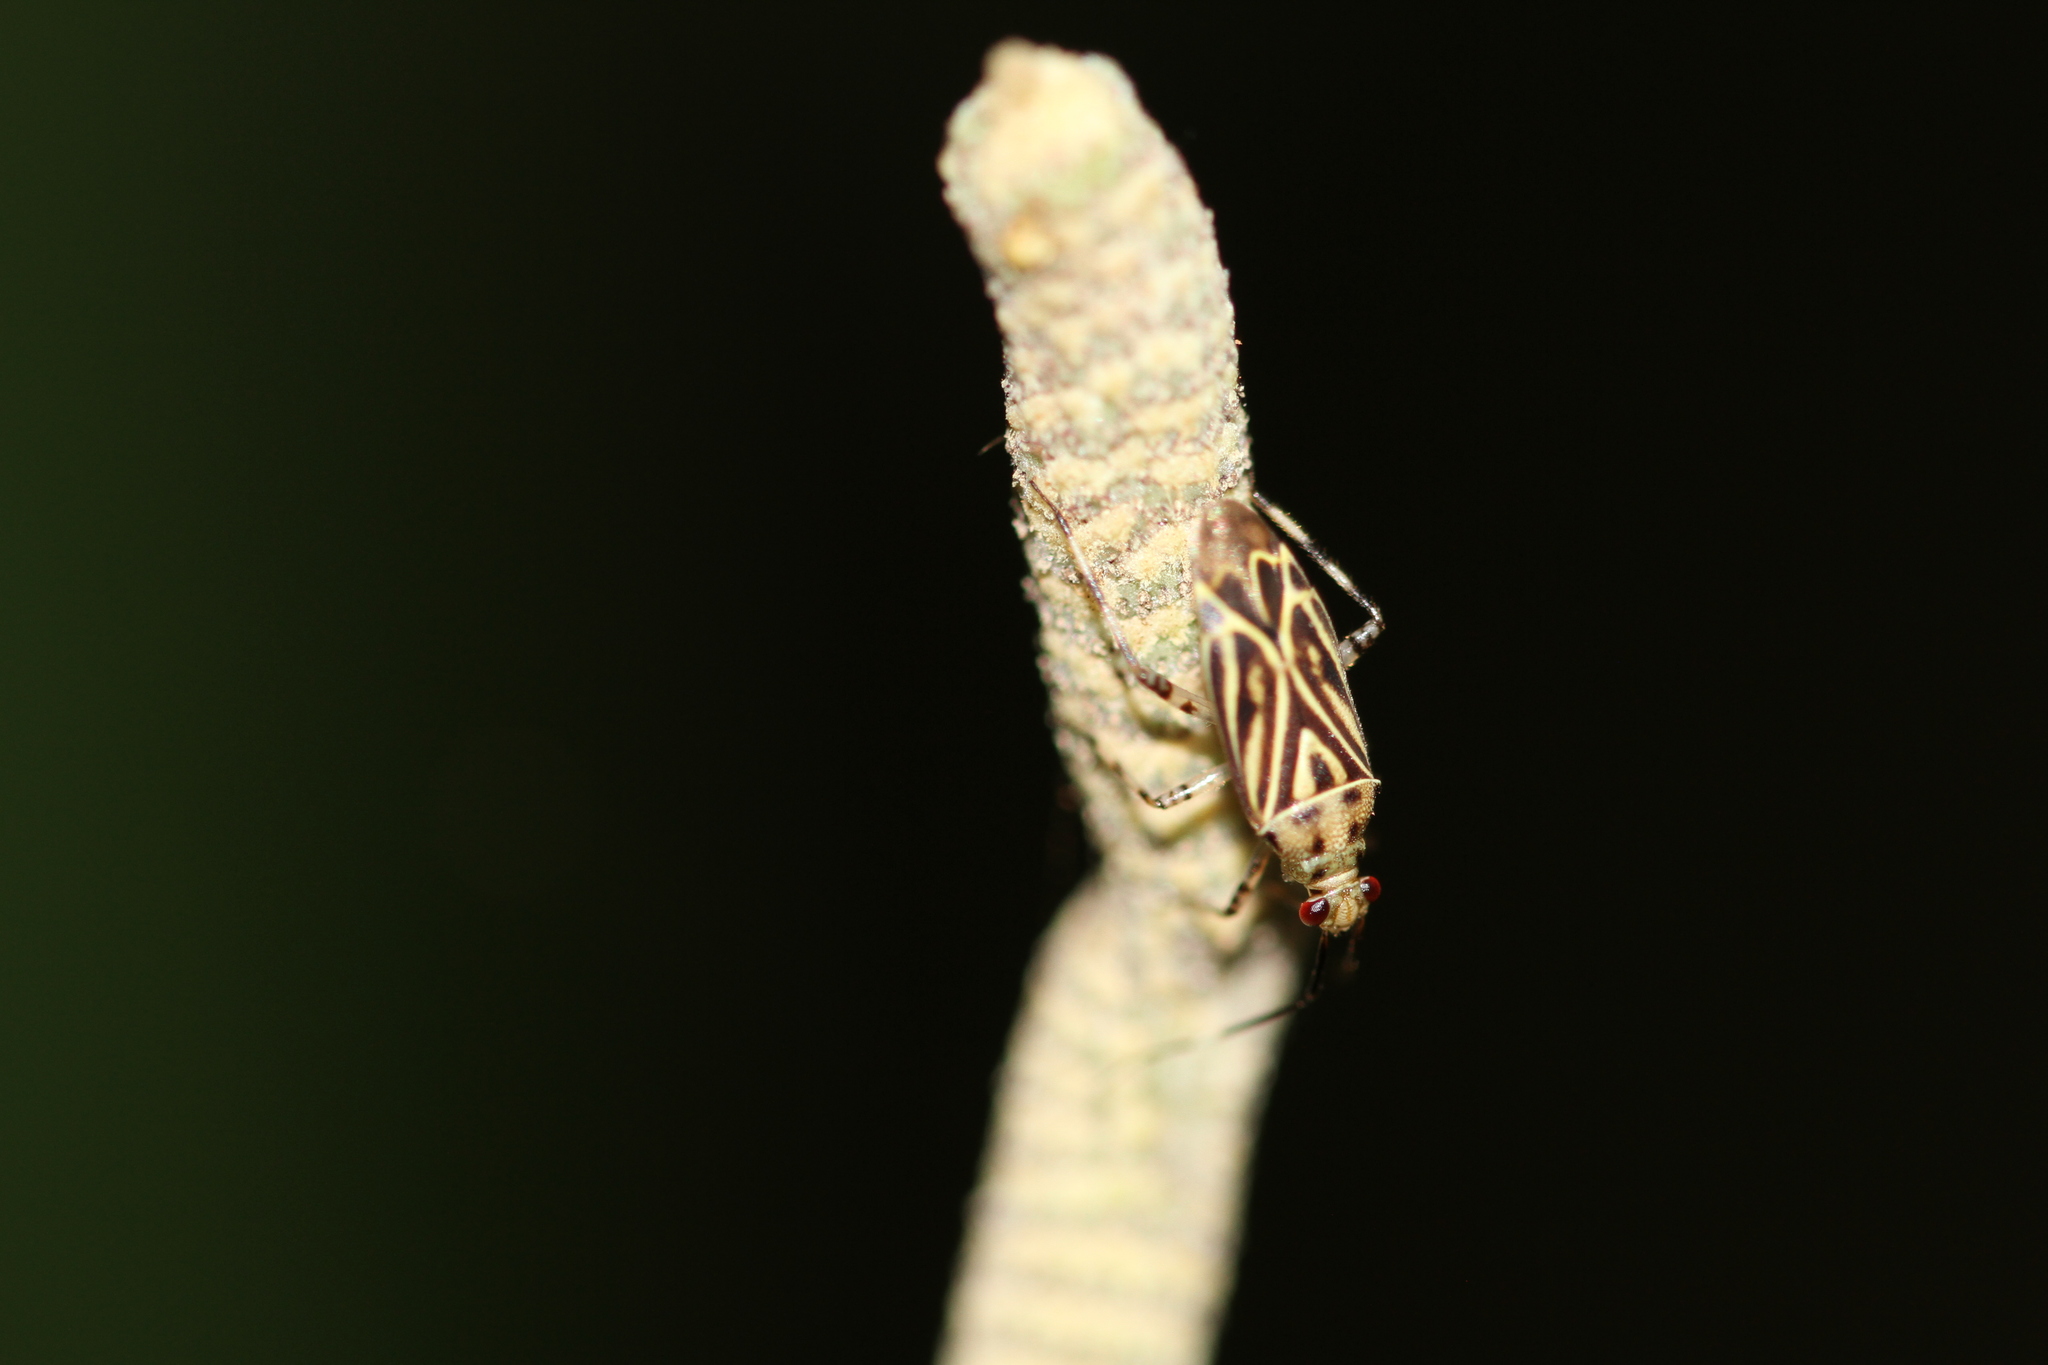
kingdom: Animalia
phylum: Arthropoda
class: Insecta
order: Hemiptera
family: Miridae
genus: Piasus
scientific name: Piasus cribricollis
